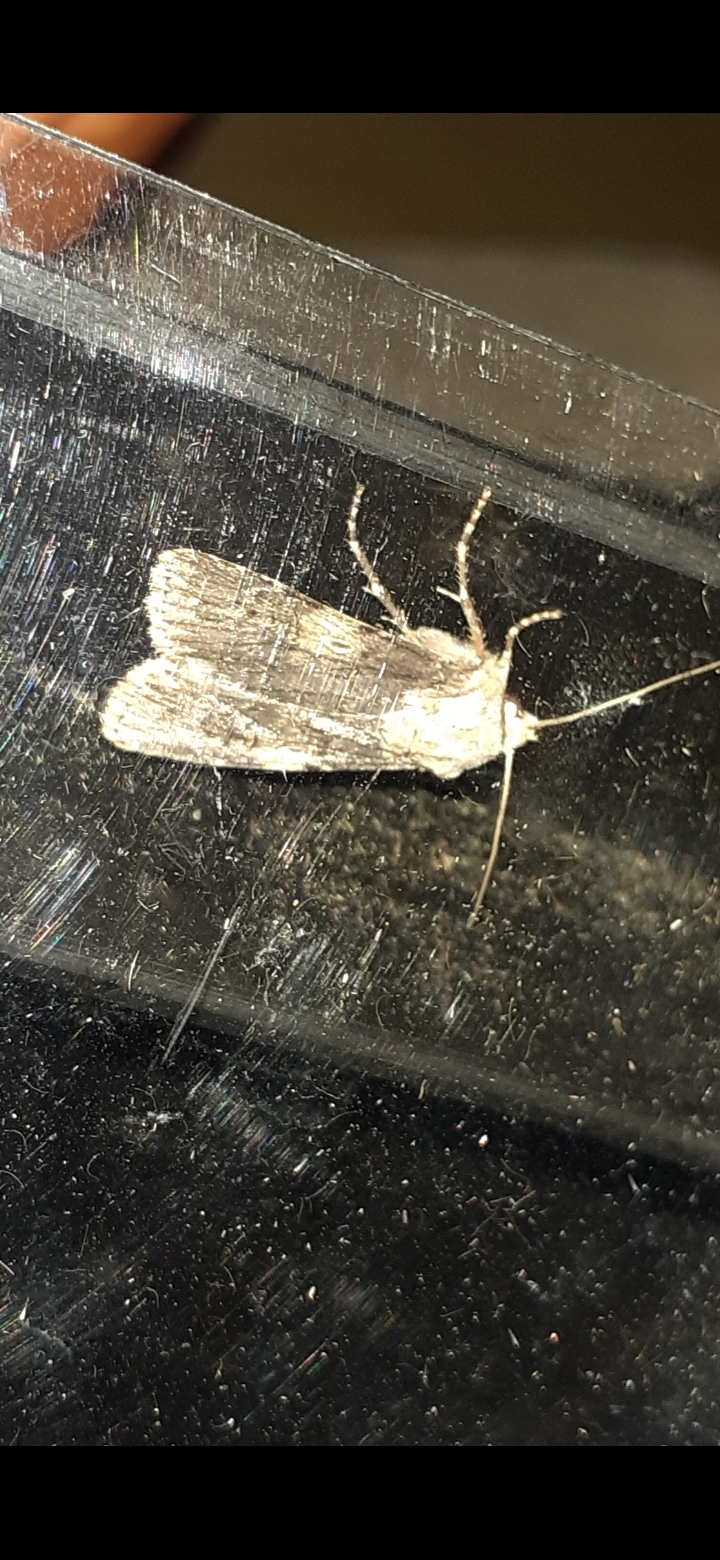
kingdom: Animalia
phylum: Arthropoda
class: Insecta
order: Lepidoptera
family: Noctuidae
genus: Agrotis
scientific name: Agrotis puta
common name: Shuttle-shaped dart
